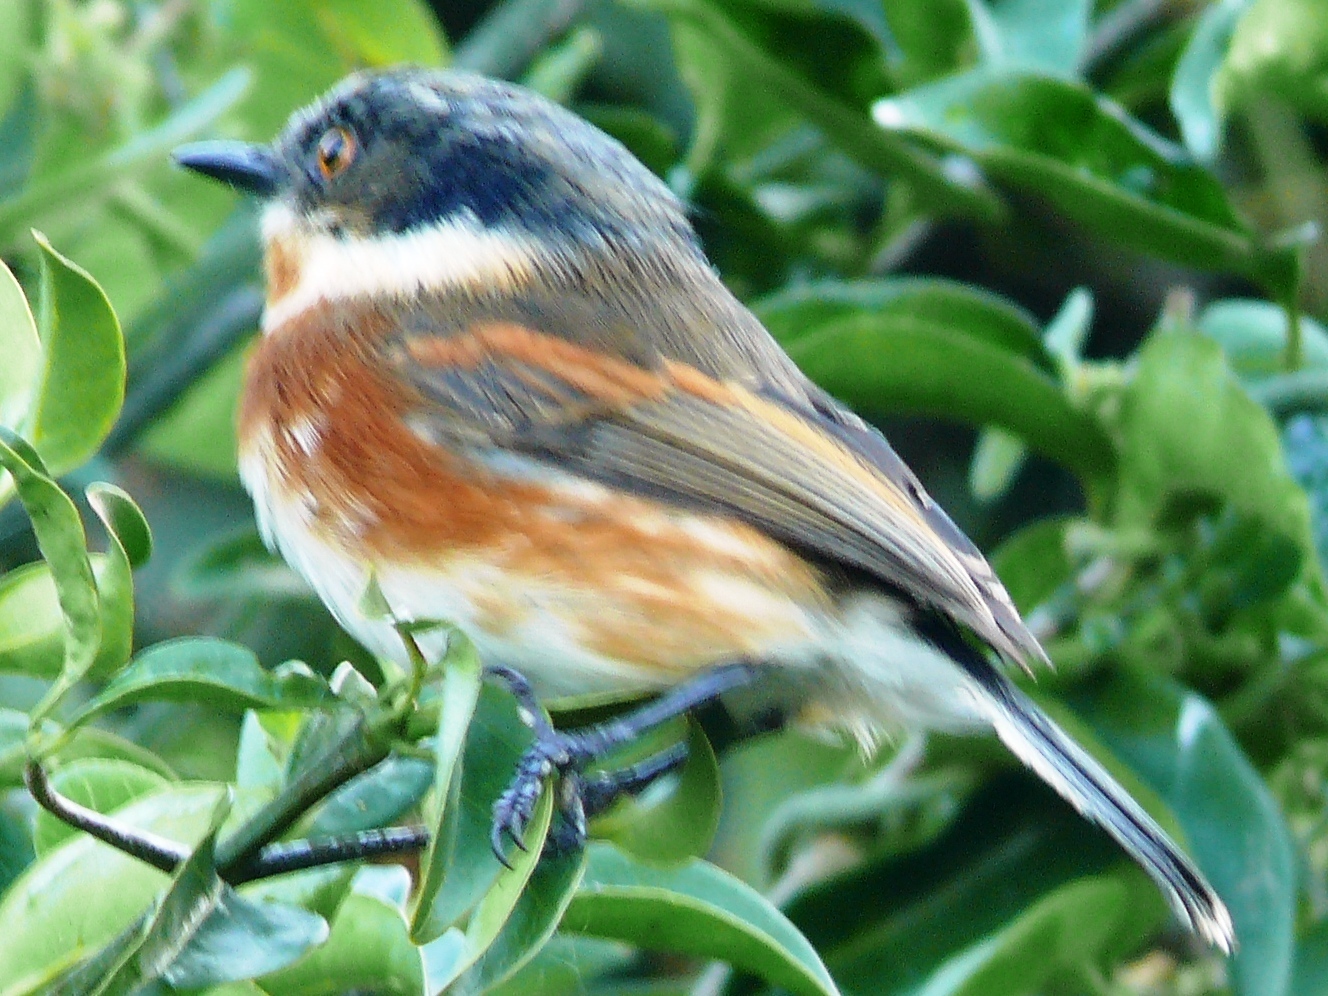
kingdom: Animalia
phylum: Chordata
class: Aves
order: Passeriformes
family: Platysteiridae
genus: Batis
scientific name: Batis capensis
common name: Cape batis
